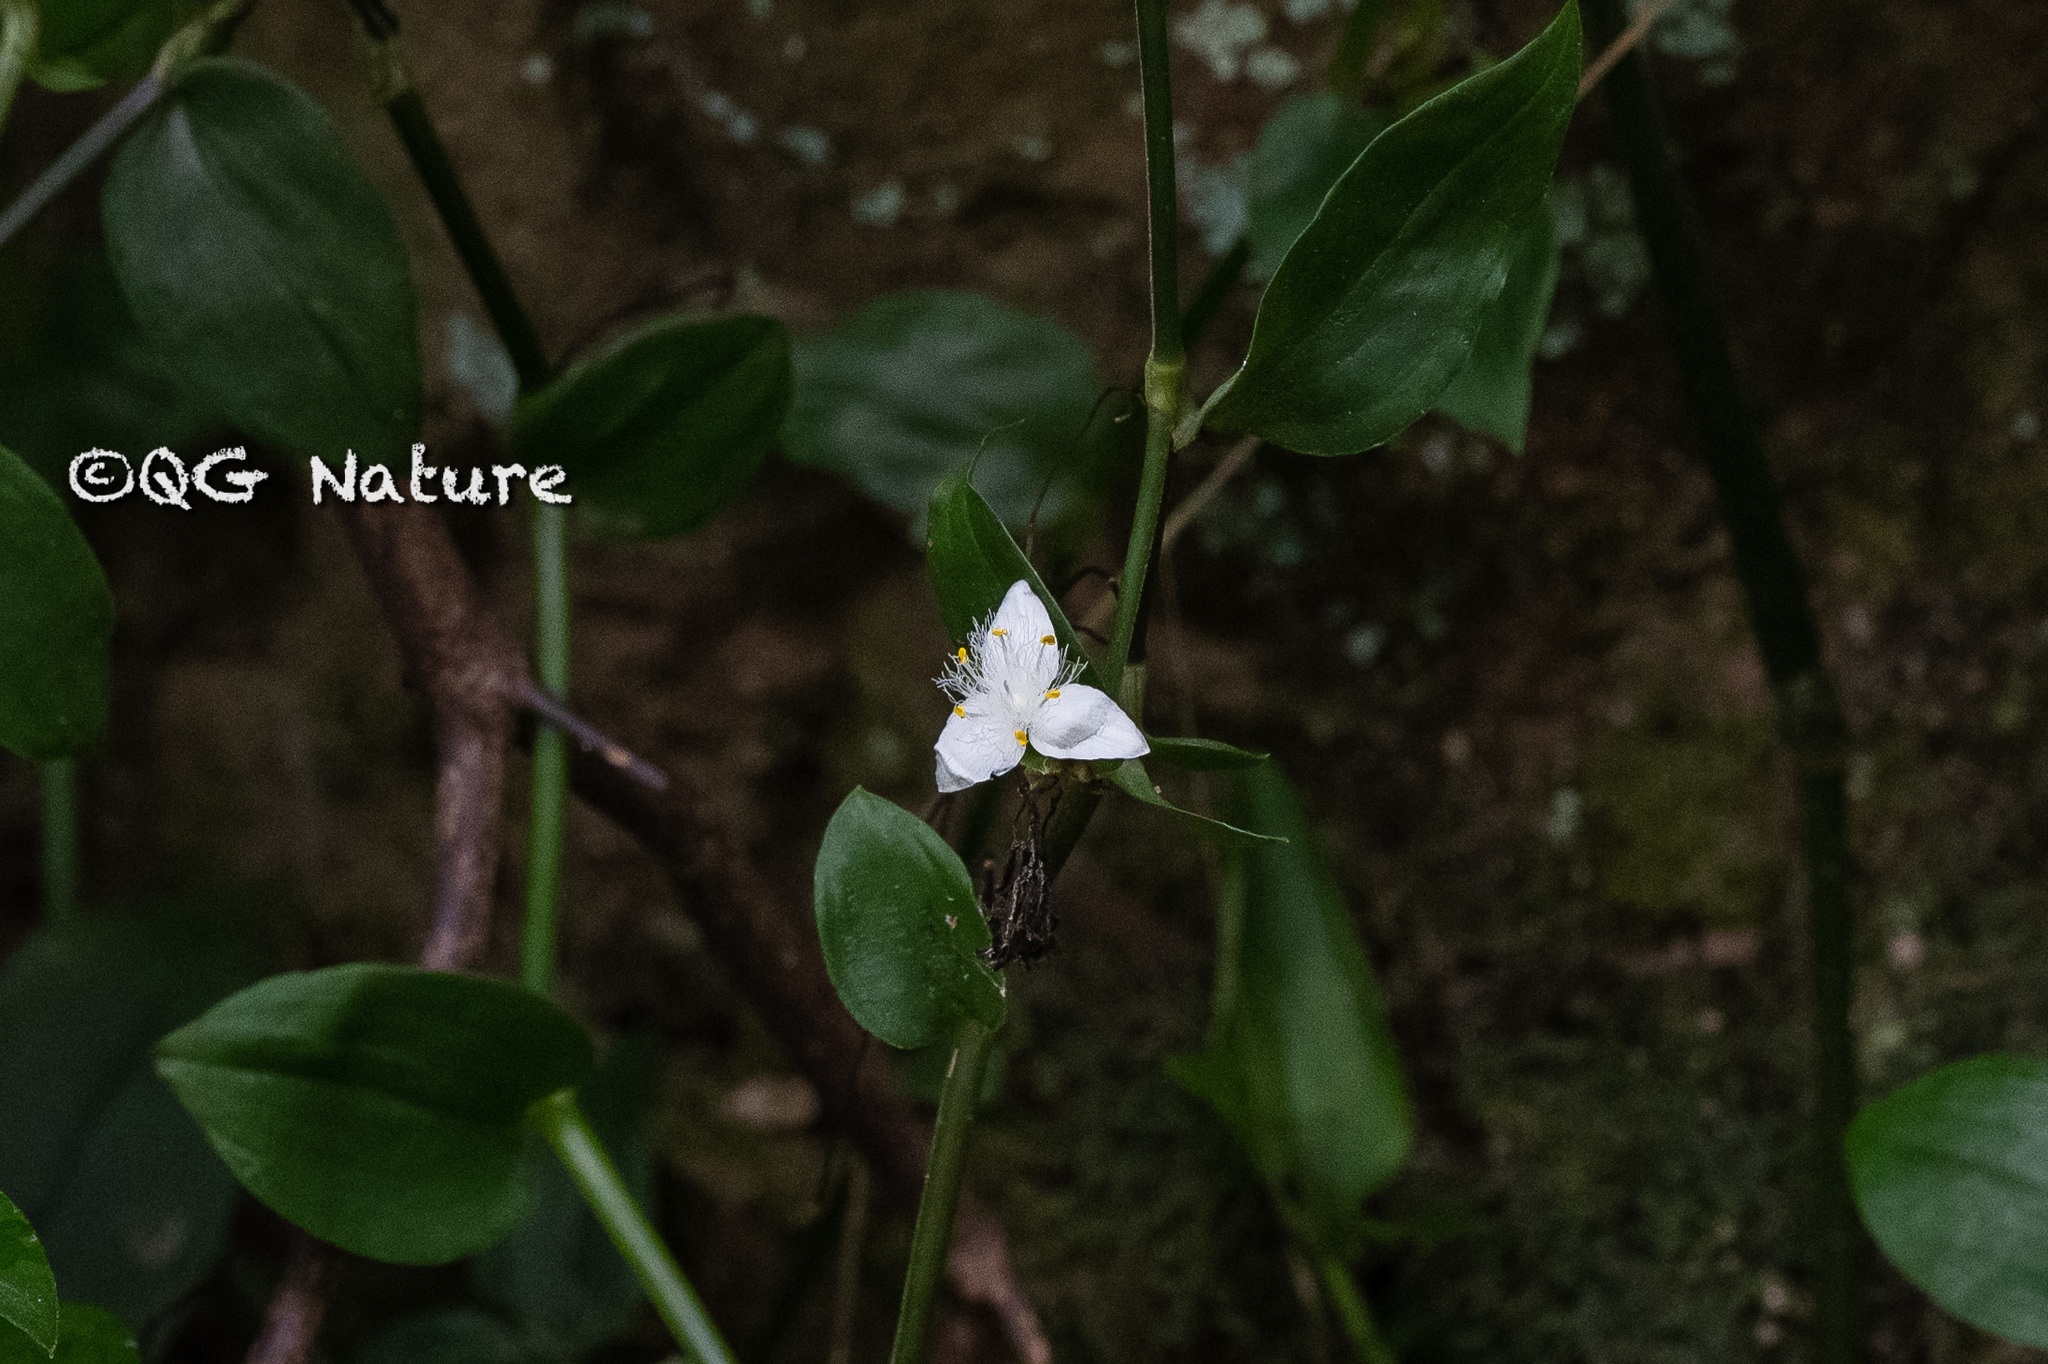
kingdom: Plantae
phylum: Tracheophyta
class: Liliopsida
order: Commelinales
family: Commelinaceae
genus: Tradescantia
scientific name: Tradescantia fluminensis
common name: Wandering-jew
